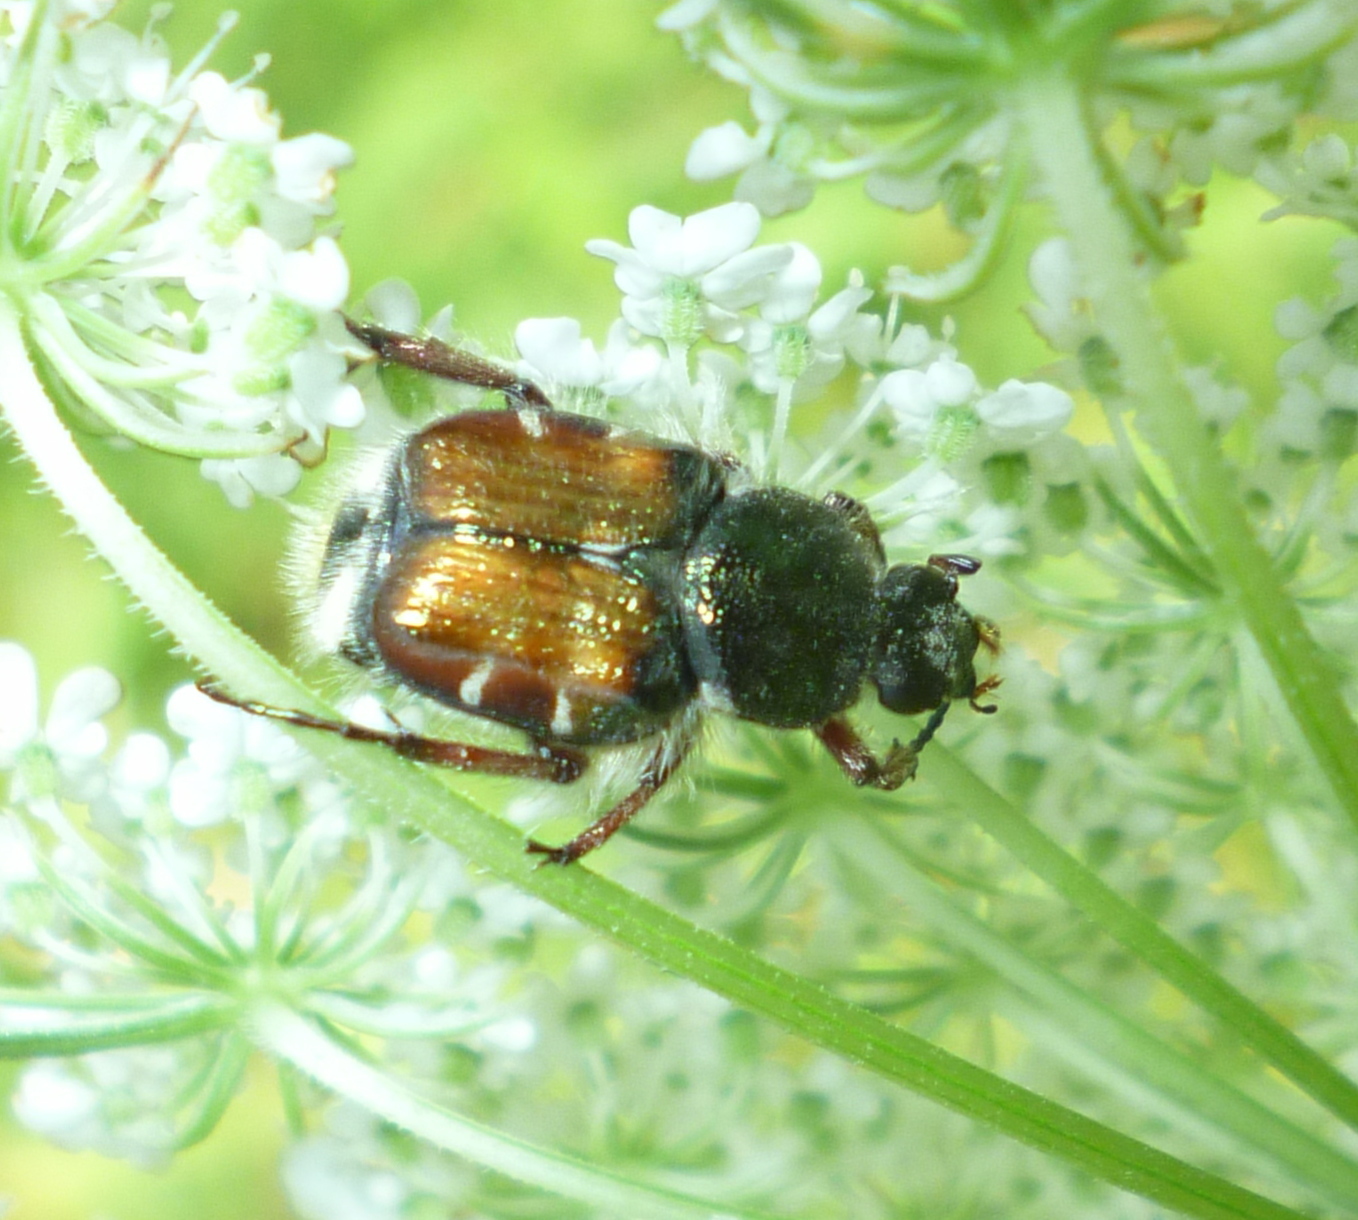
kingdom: Animalia
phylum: Arthropoda
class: Insecta
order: Coleoptera
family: Scarabaeidae
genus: Trichiotinus
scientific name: Trichiotinus affinis
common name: Hairy flower scarab
